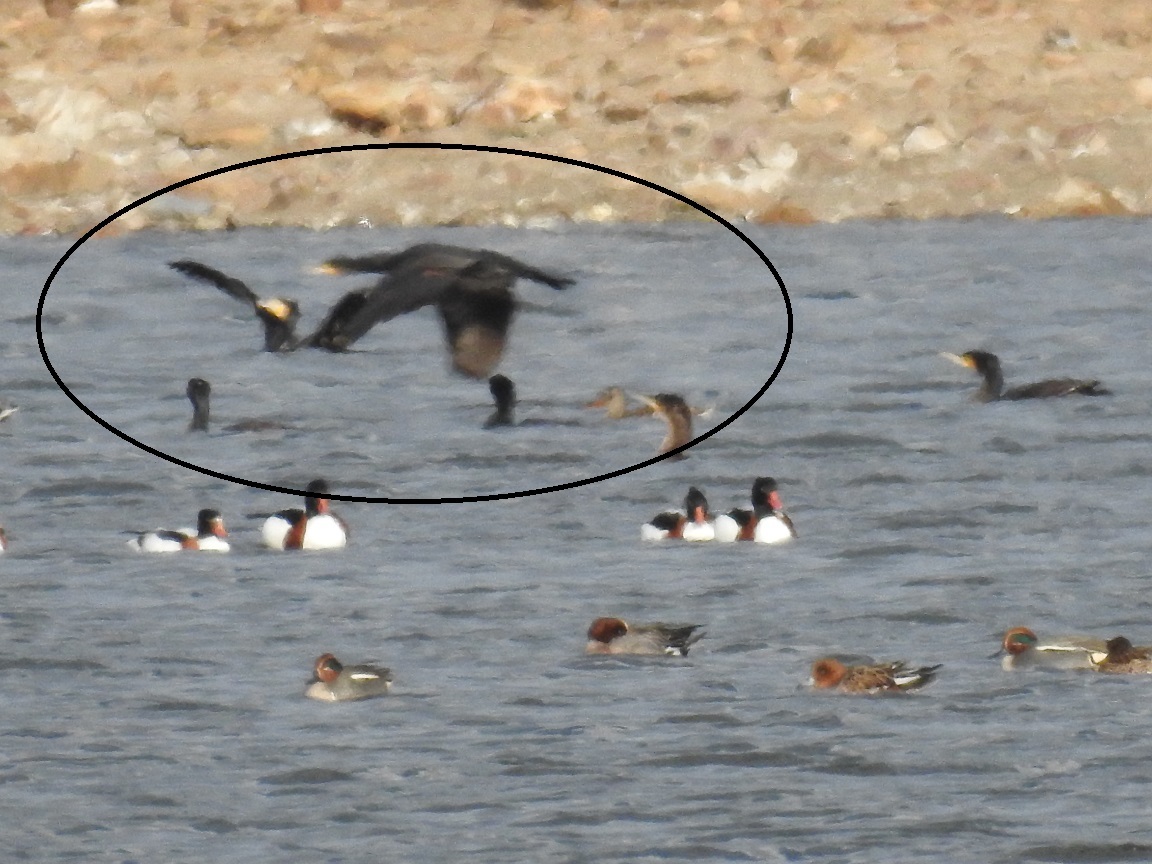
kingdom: Animalia
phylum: Chordata
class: Aves
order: Suliformes
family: Phalacrocoracidae
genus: Phalacrocorax
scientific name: Phalacrocorax carbo
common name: Great cormorant
